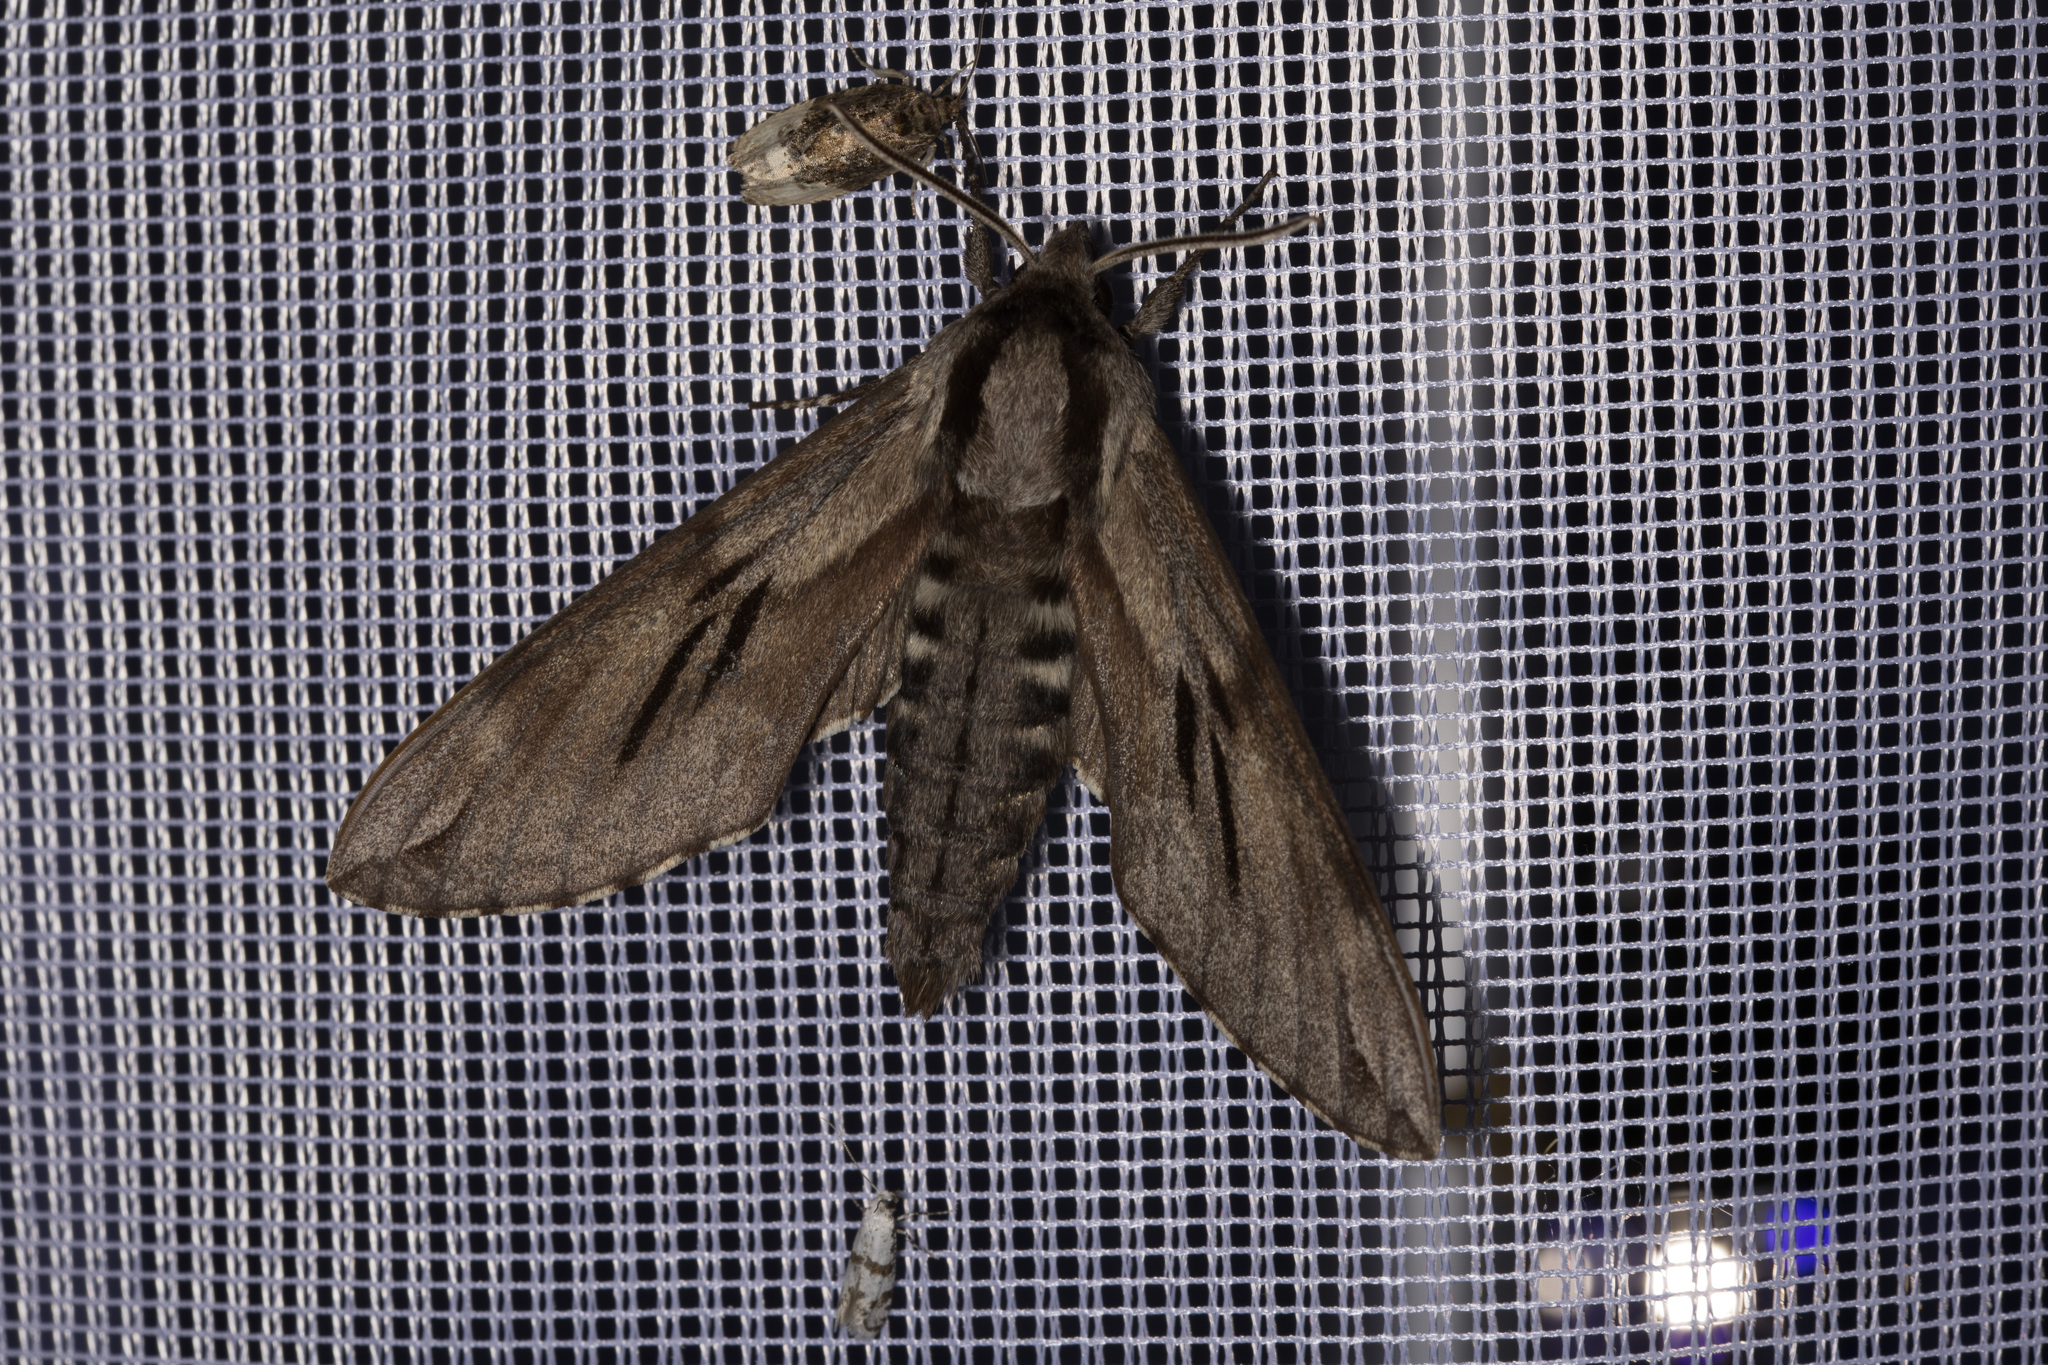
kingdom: Animalia
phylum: Arthropoda
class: Insecta
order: Lepidoptera
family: Sphingidae
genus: Sphinx
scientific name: Sphinx pinastri
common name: Pine hawk-moth
